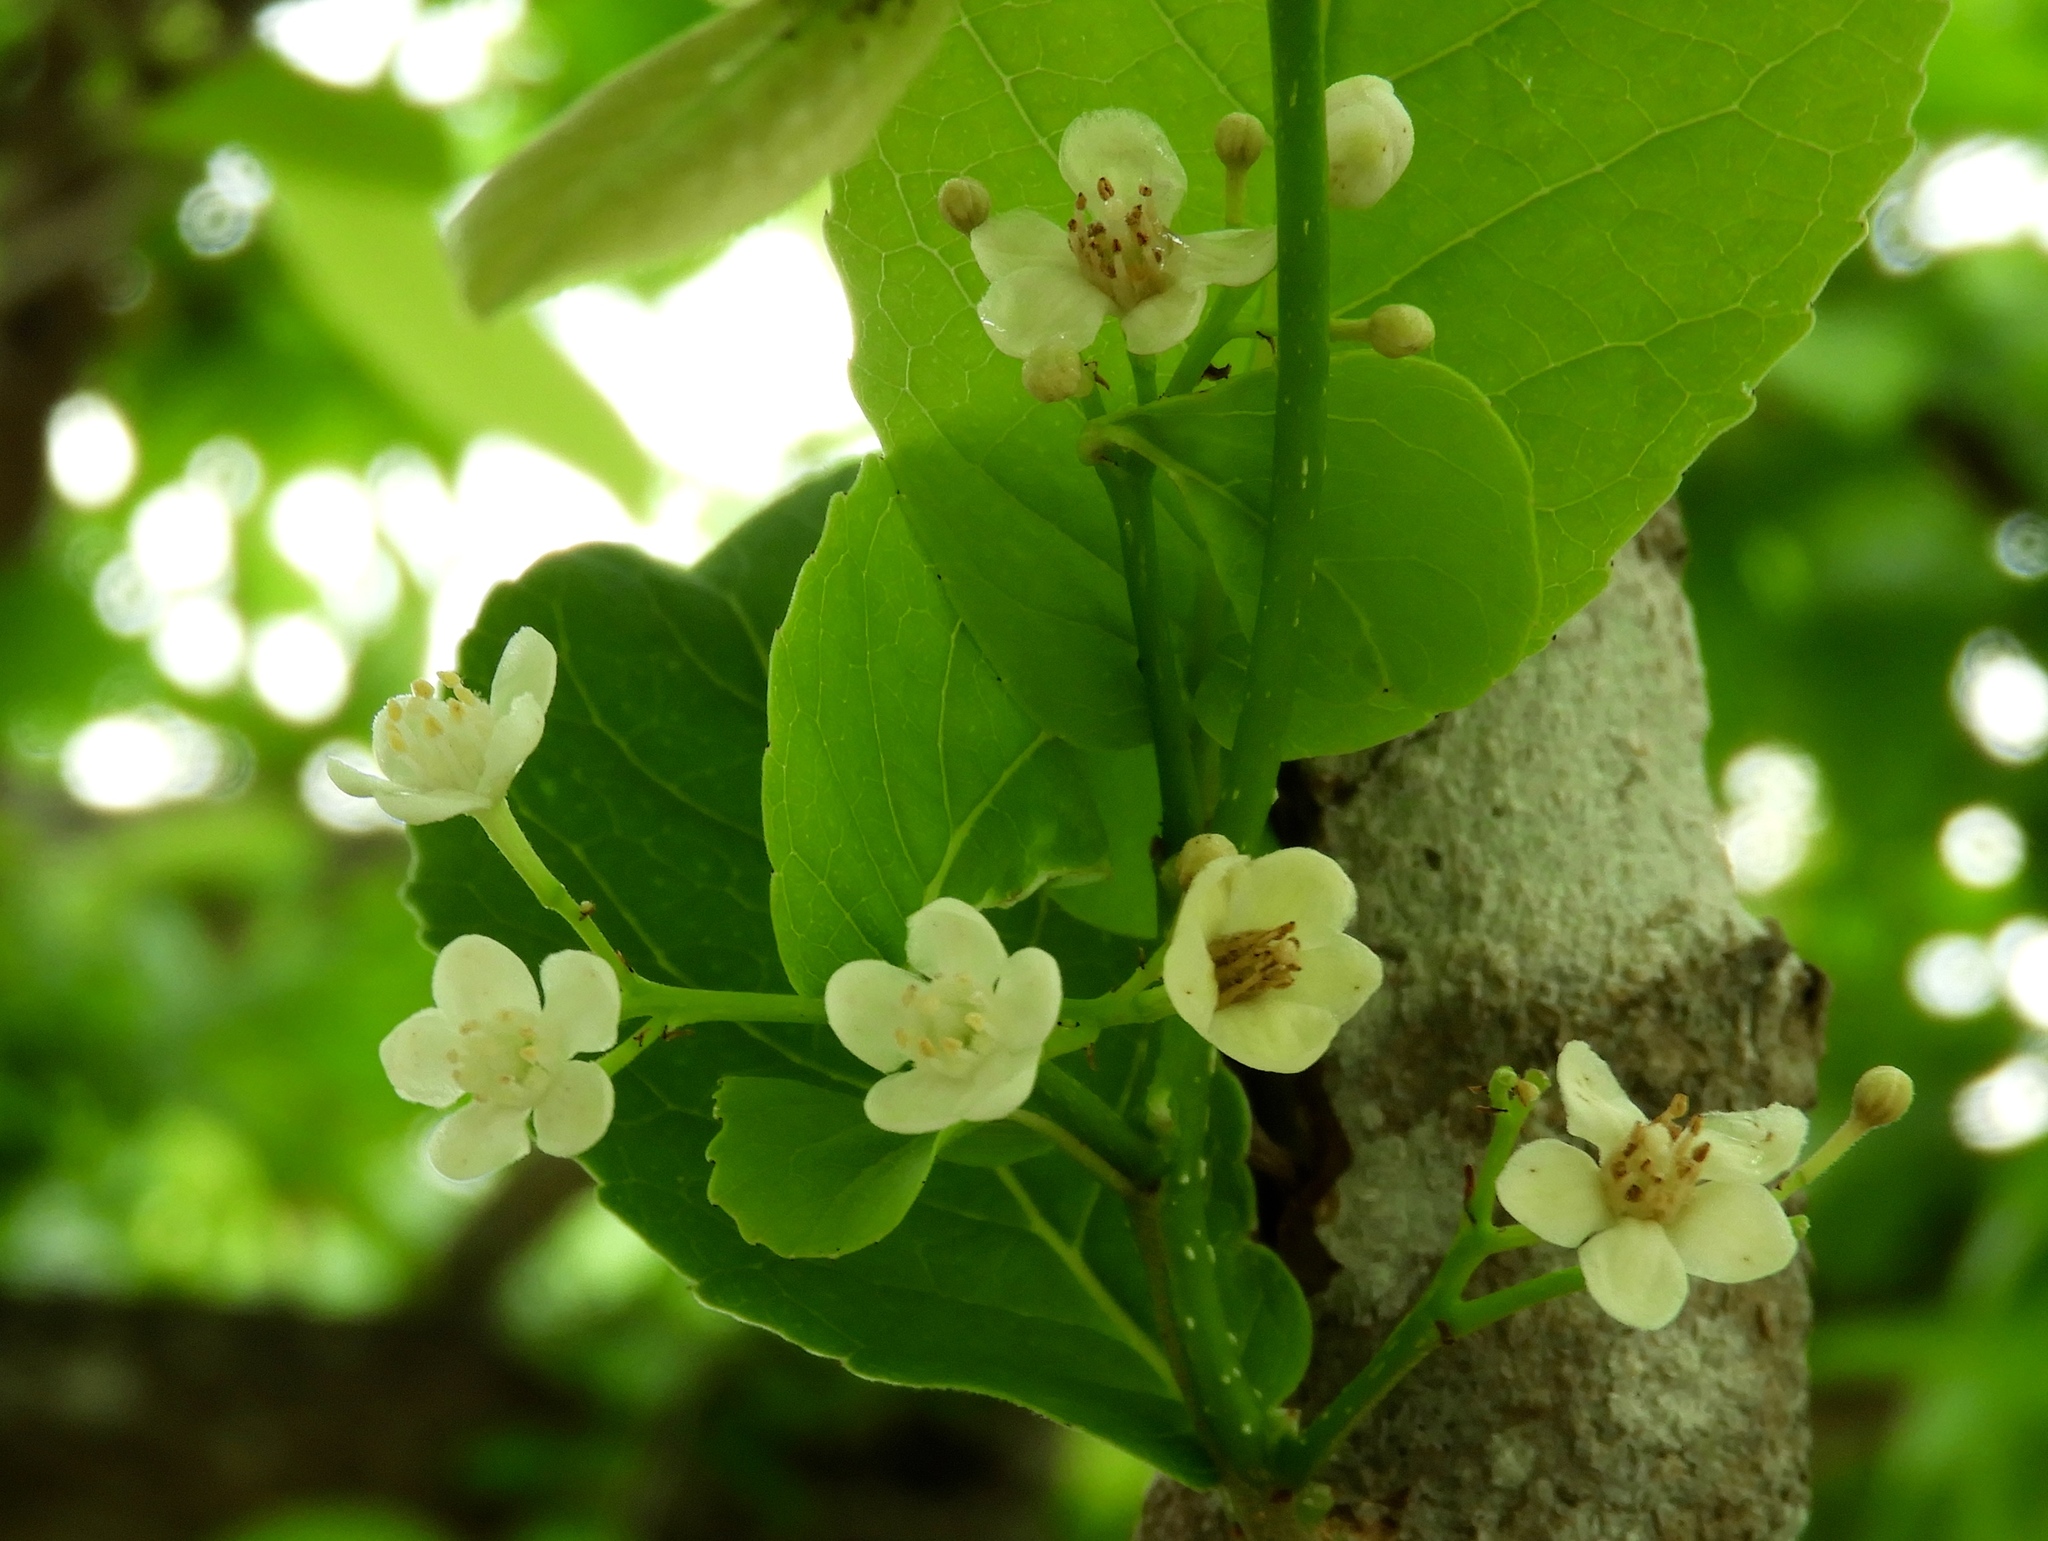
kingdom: Plantae
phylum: Tracheophyta
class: Magnoliopsida
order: Malpighiales
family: Salicaceae
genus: Casearia
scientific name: Casearia corymbosa
